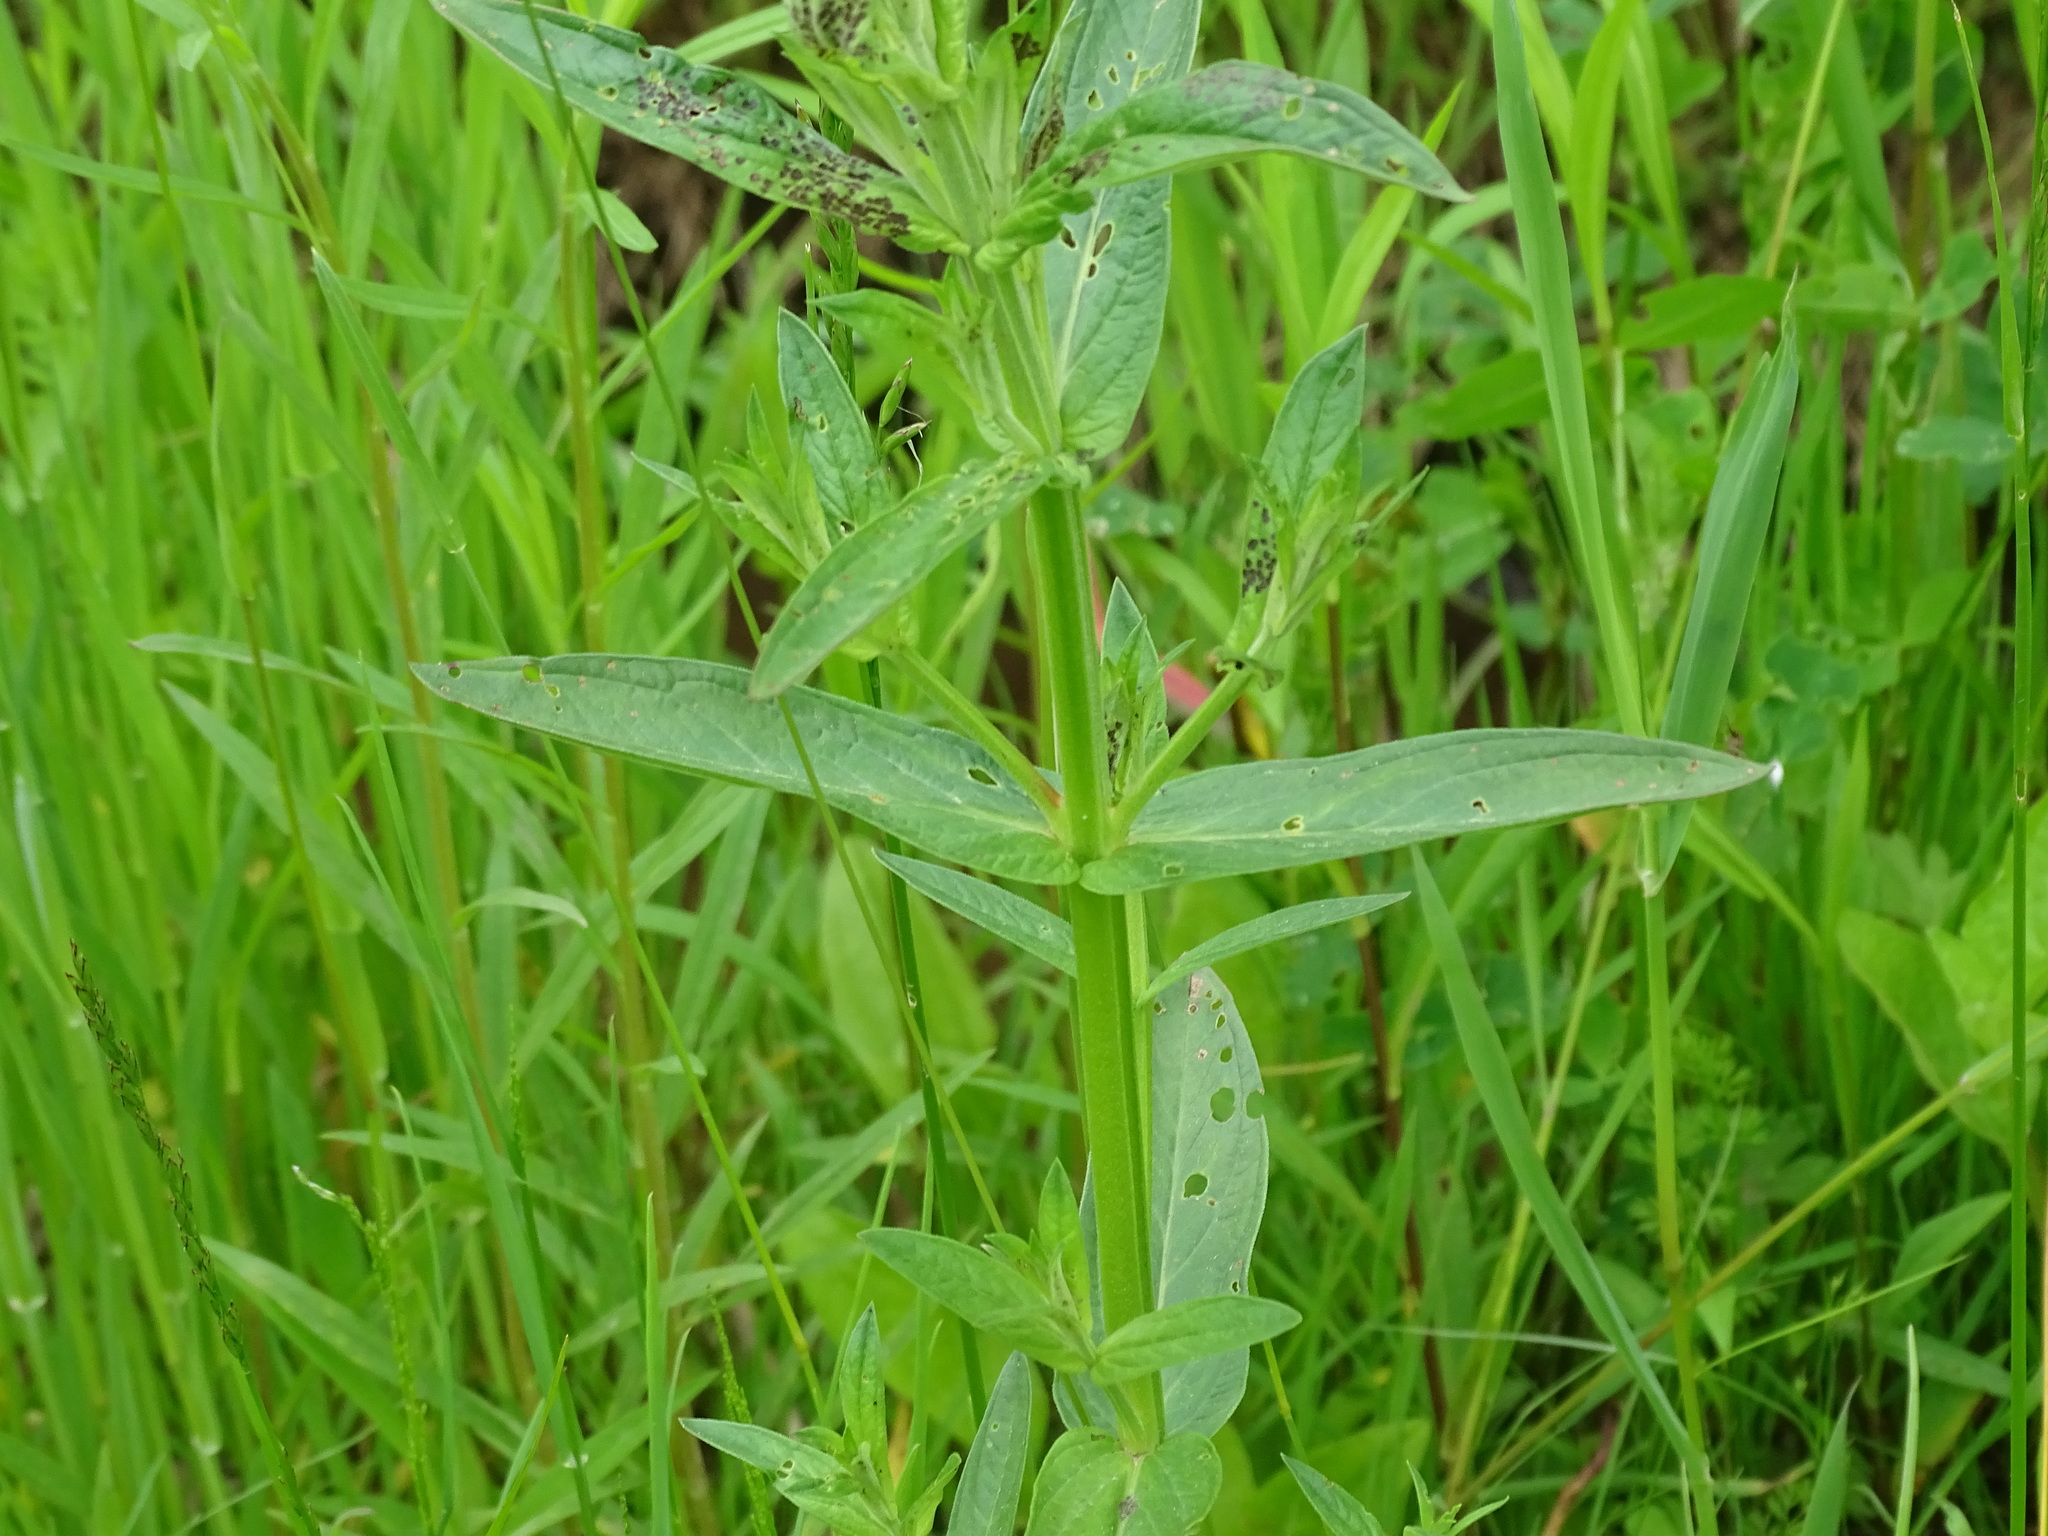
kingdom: Plantae
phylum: Tracheophyta
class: Magnoliopsida
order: Myrtales
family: Lythraceae
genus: Lythrum
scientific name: Lythrum salicaria
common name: Purple loosestrife
